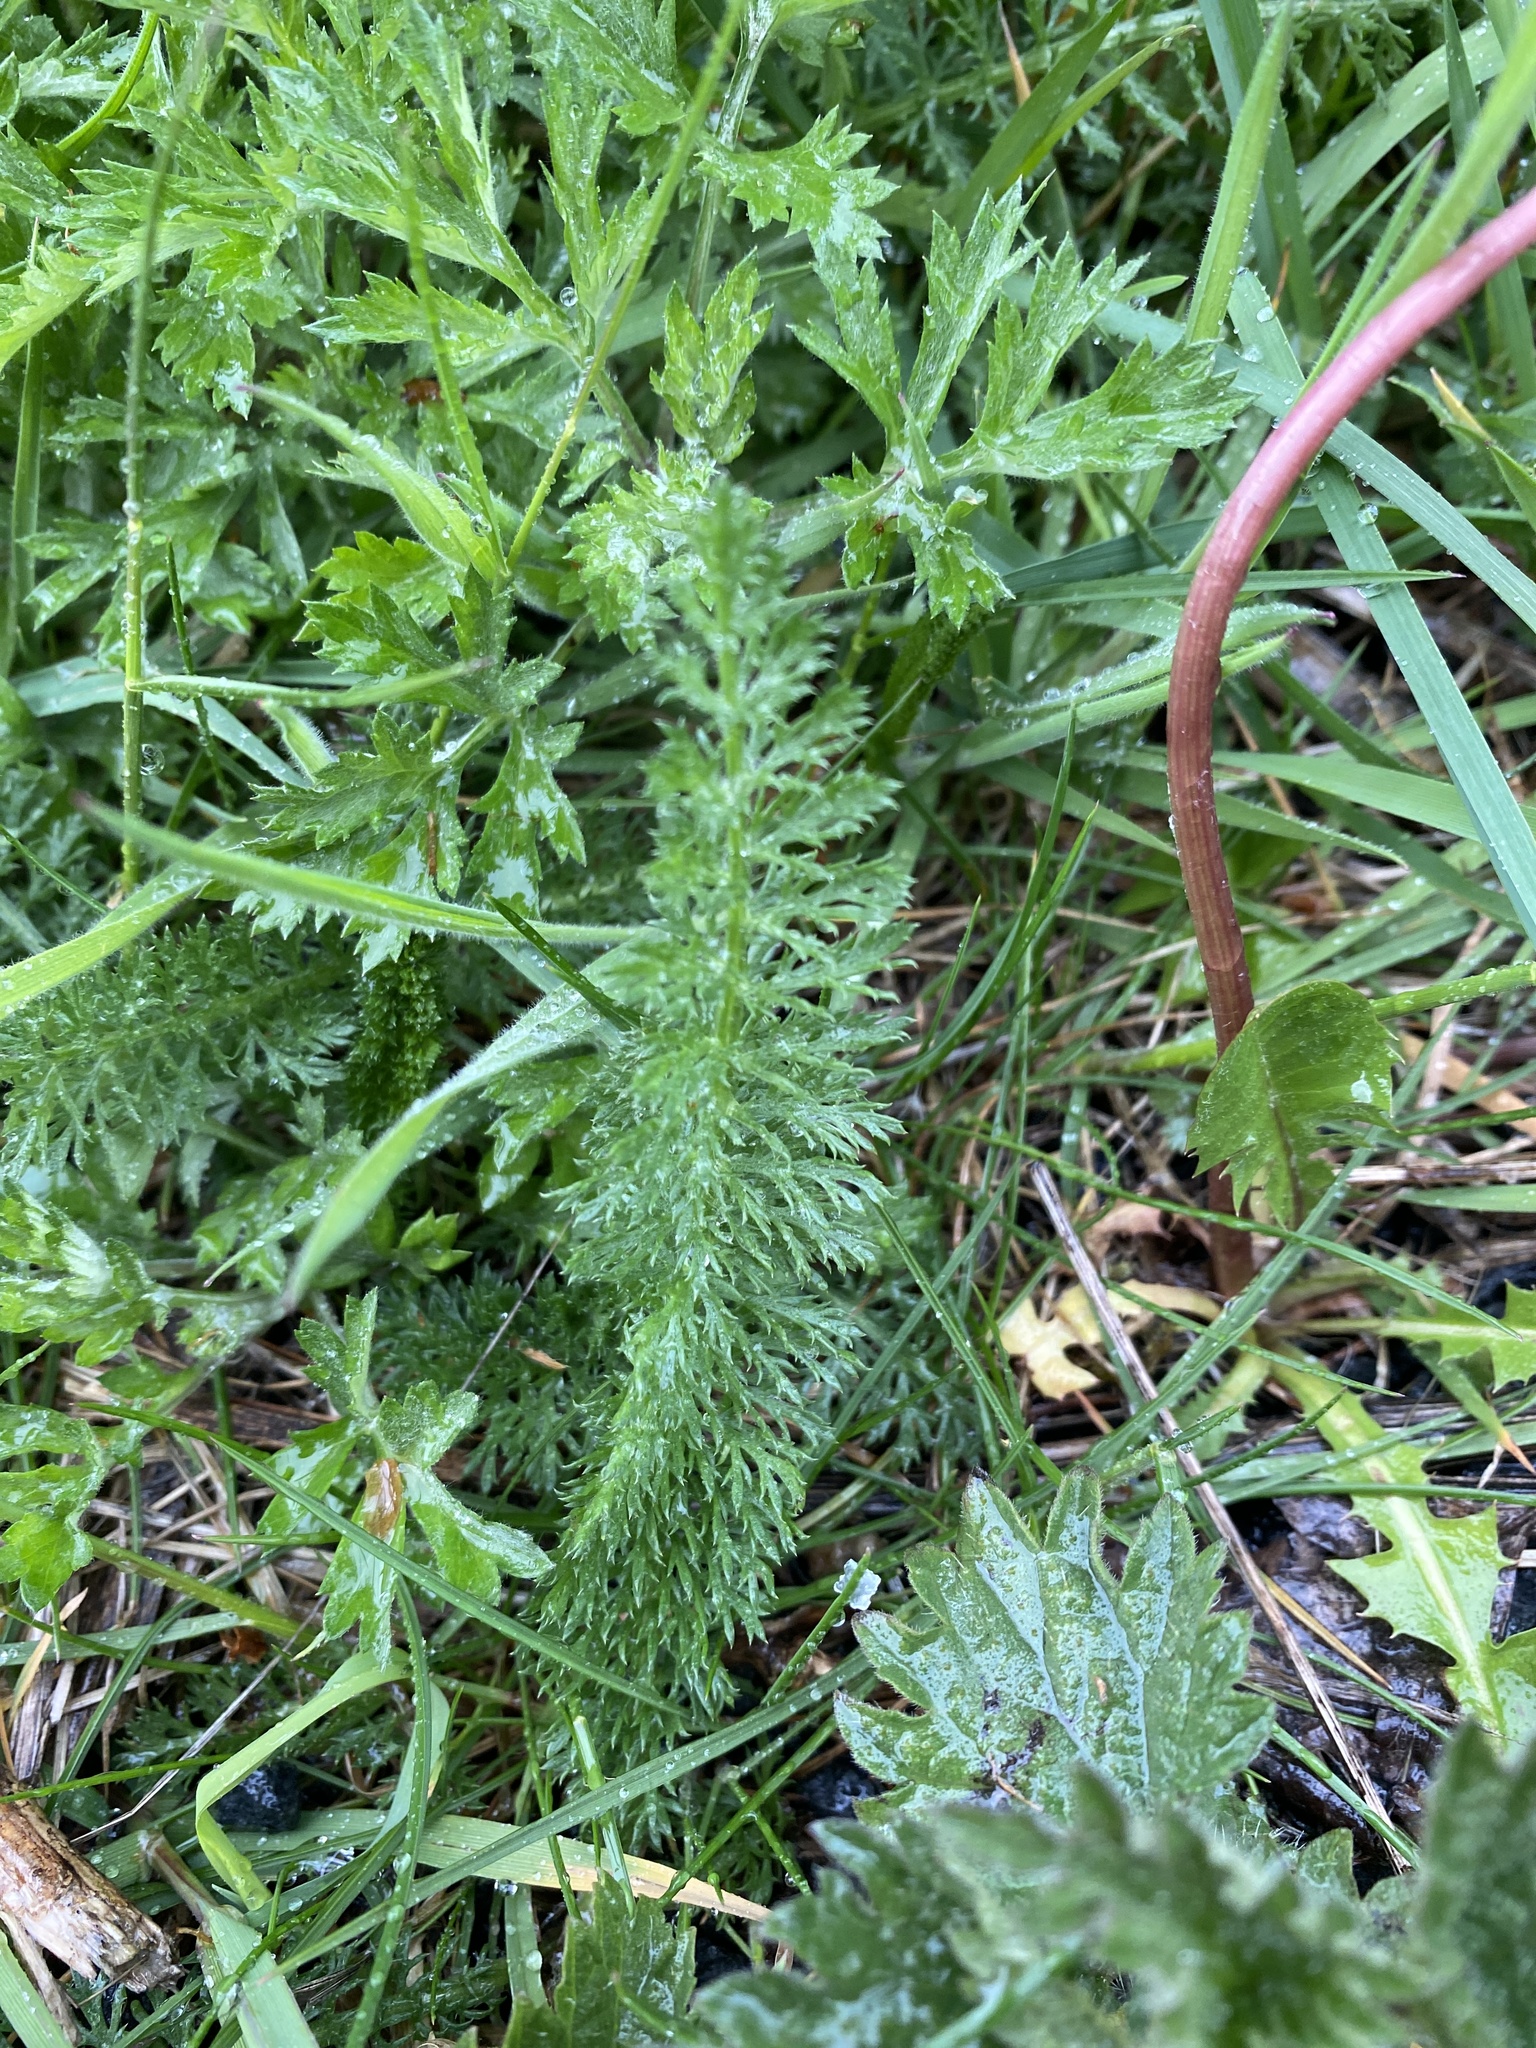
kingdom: Plantae
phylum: Tracheophyta
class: Magnoliopsida
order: Asterales
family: Asteraceae
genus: Achillea
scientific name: Achillea millefolium
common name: Yarrow
